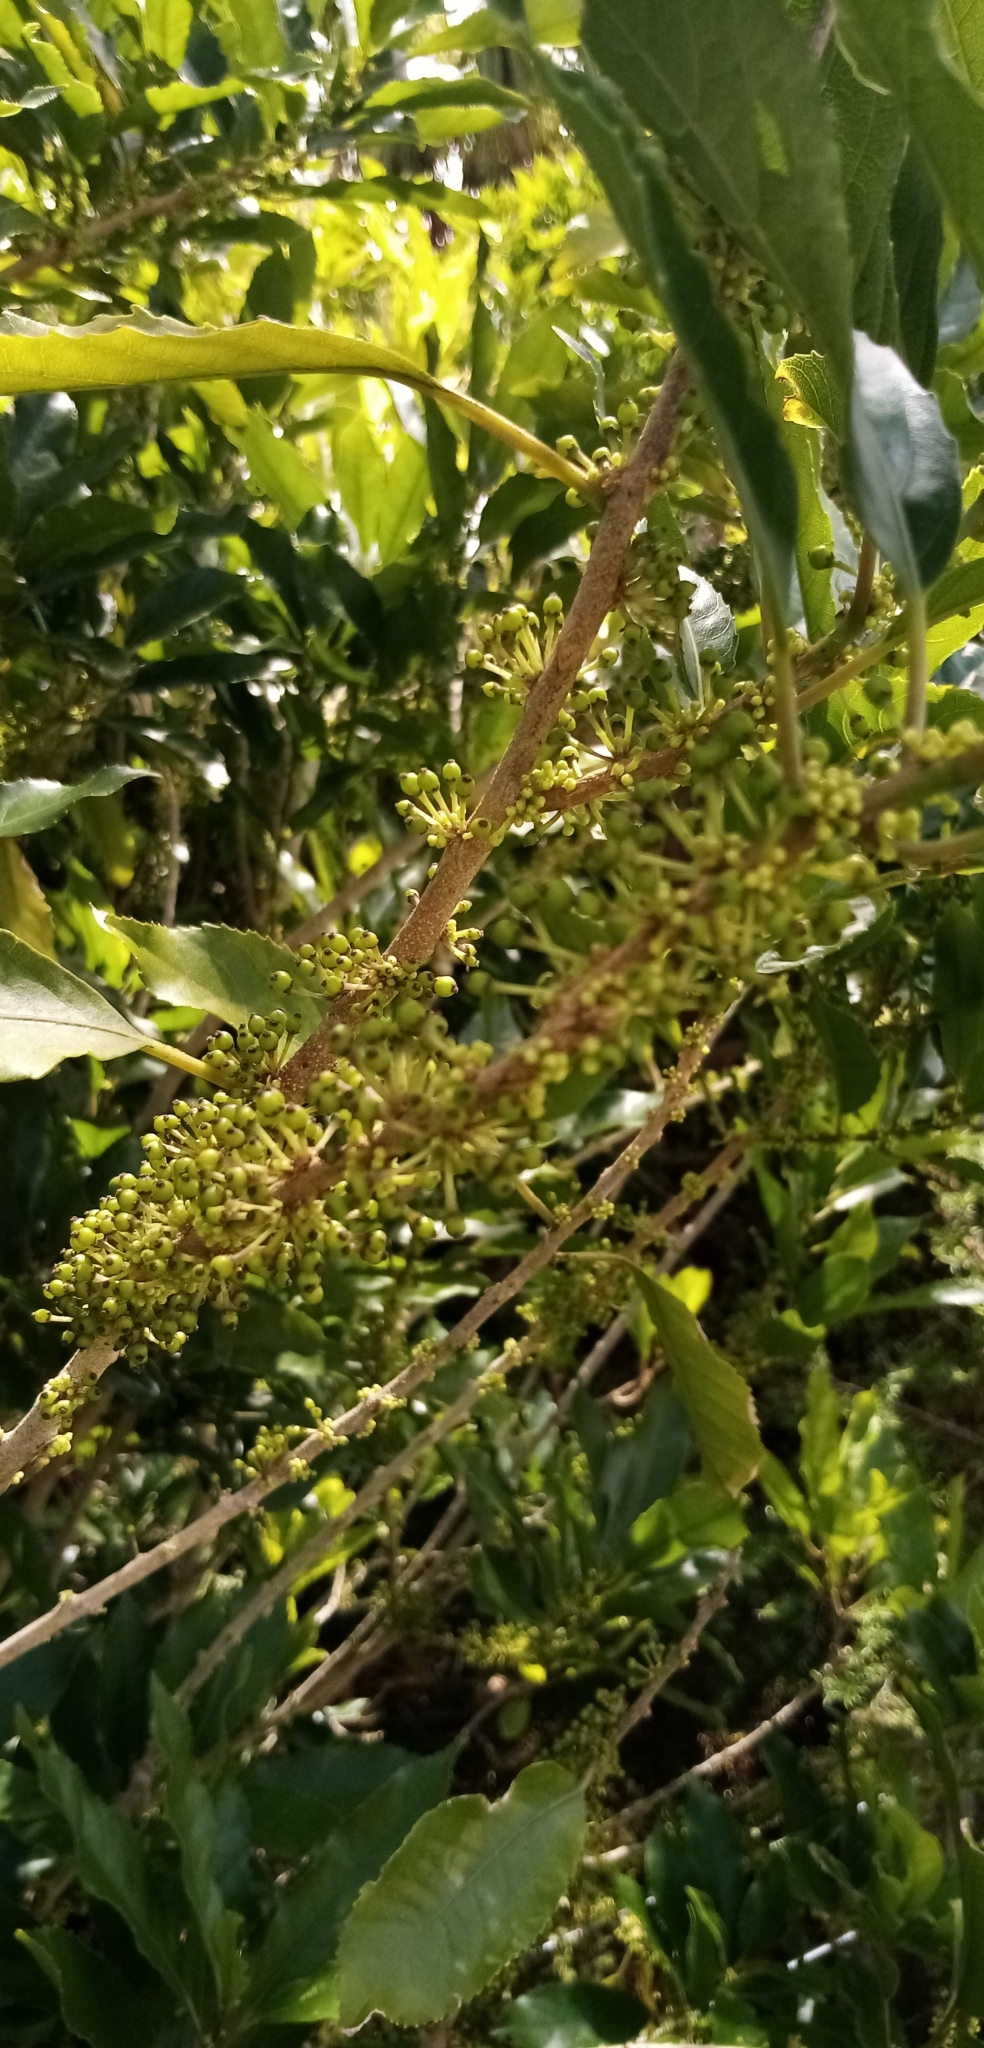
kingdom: Plantae
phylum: Tracheophyta
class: Magnoliopsida
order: Malpighiales
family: Violaceae
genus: Melicytus
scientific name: Melicytus ramiflorus
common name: Mahoe
